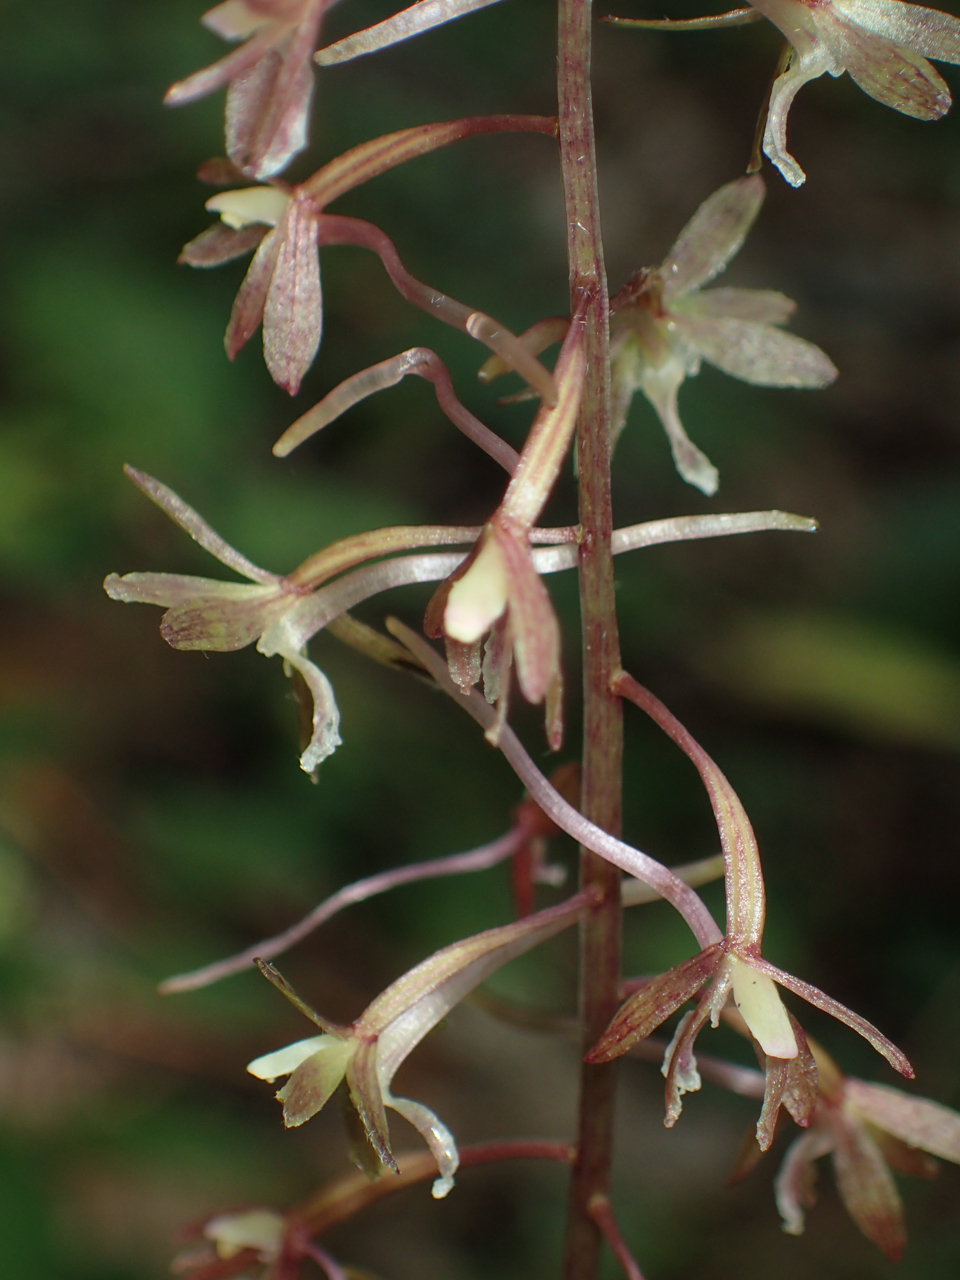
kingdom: Plantae
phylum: Tracheophyta
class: Liliopsida
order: Asparagales
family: Orchidaceae
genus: Tipularia
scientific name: Tipularia discolor
